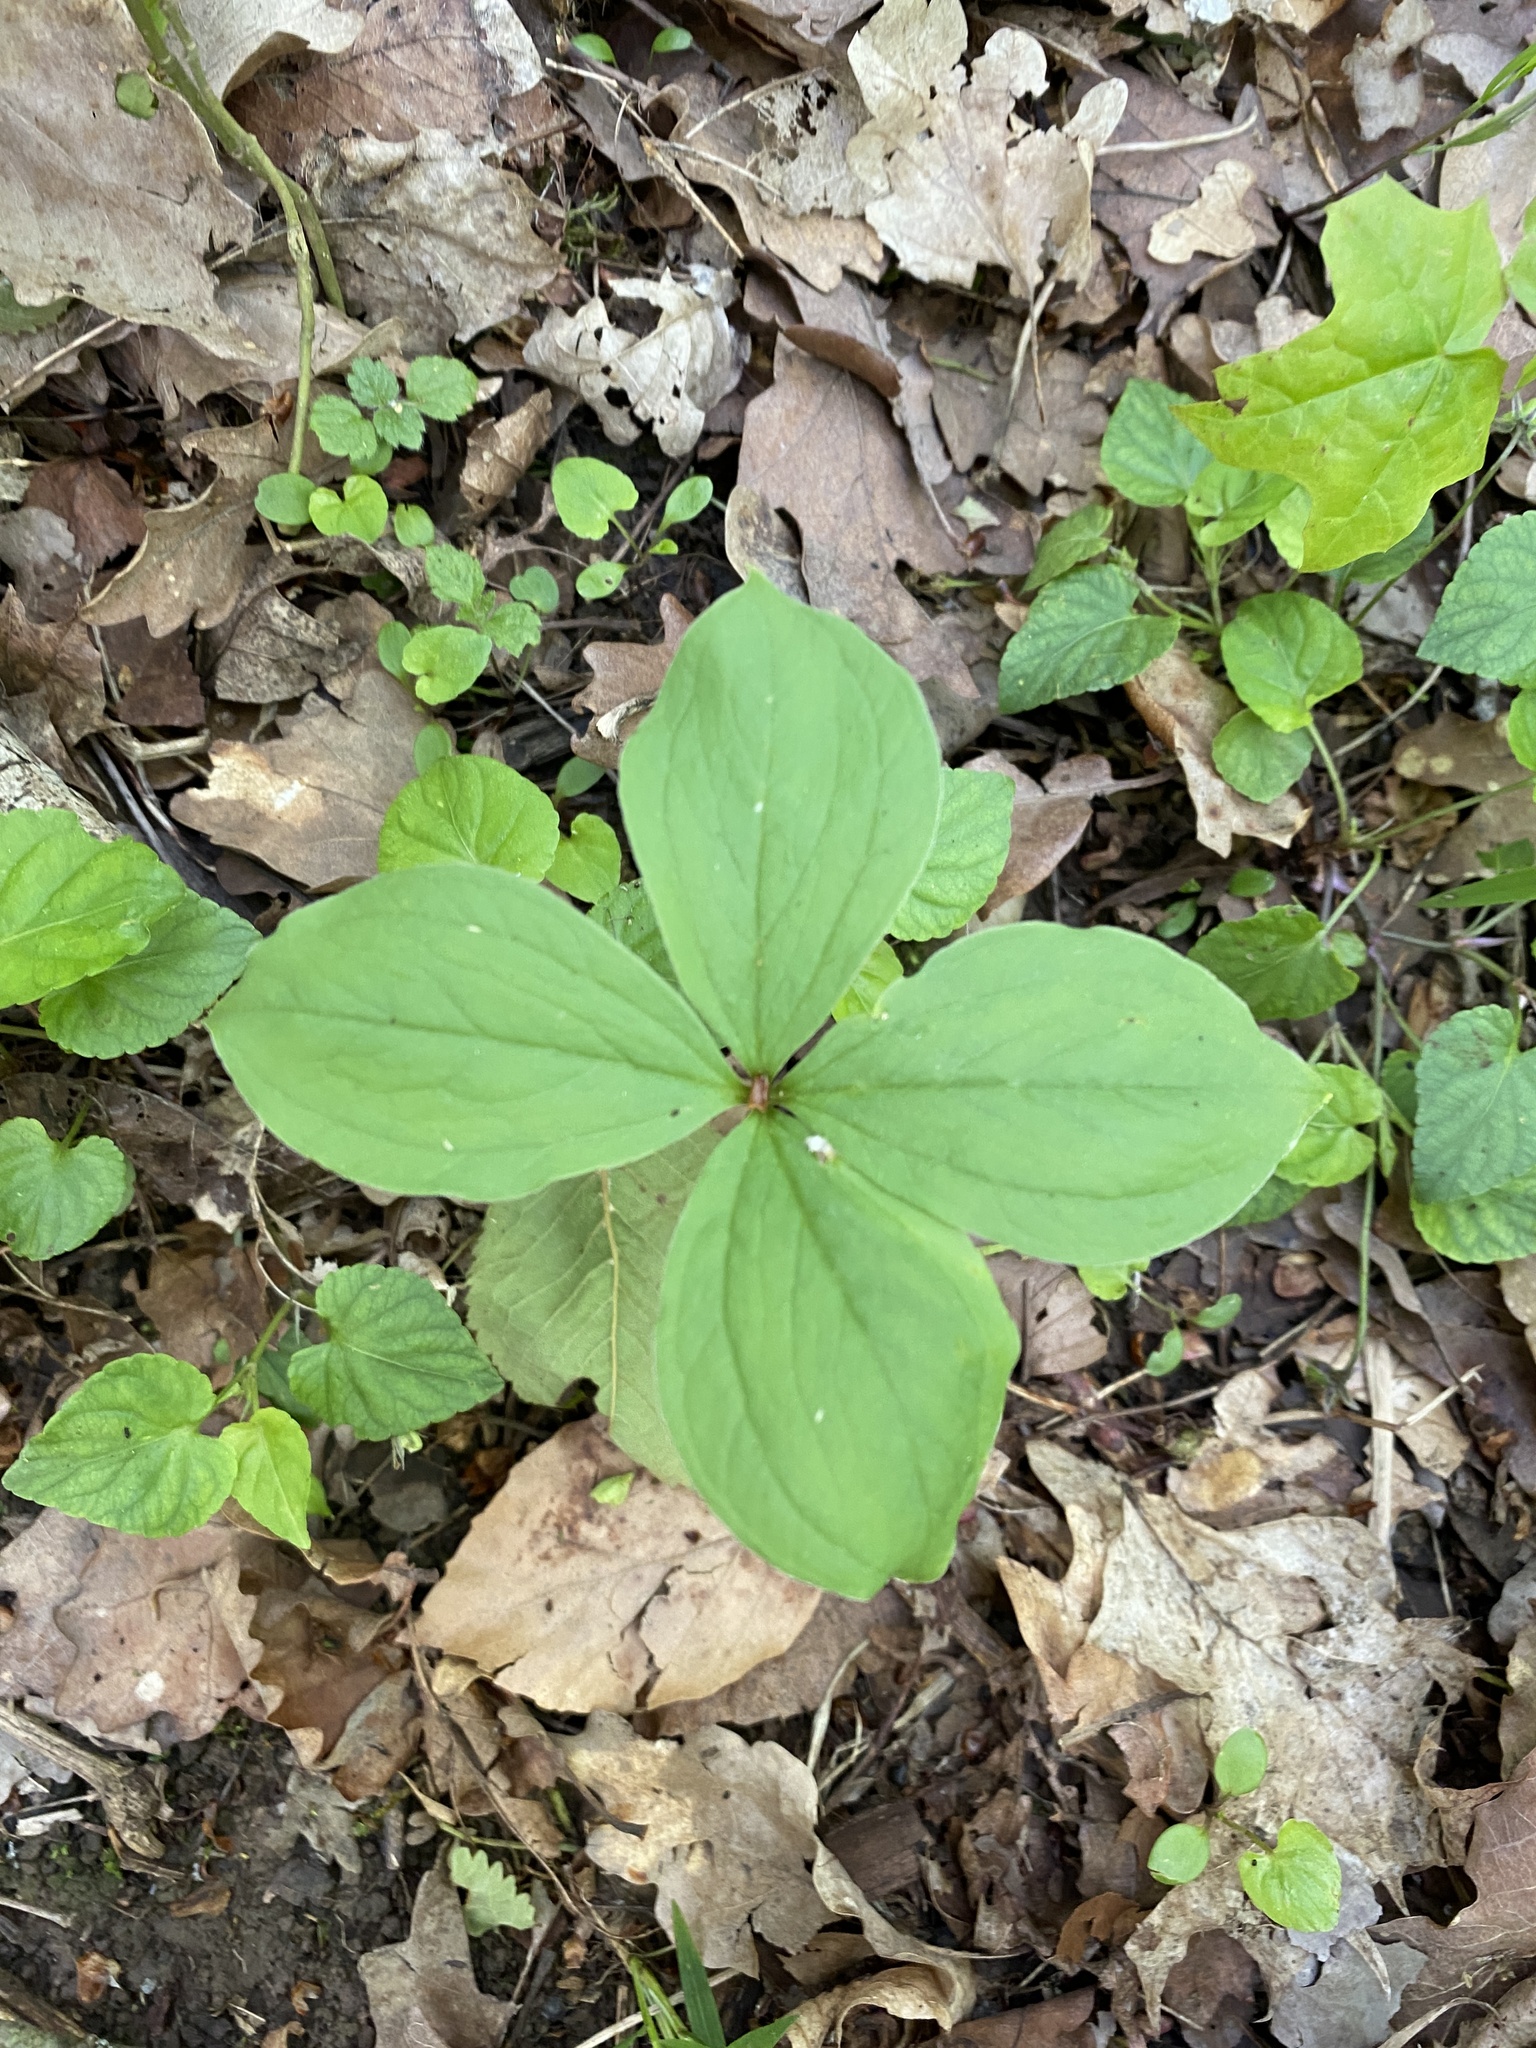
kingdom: Plantae
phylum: Tracheophyta
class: Liliopsida
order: Liliales
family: Melanthiaceae
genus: Paris
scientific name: Paris quadrifolia
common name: Herb-paris
